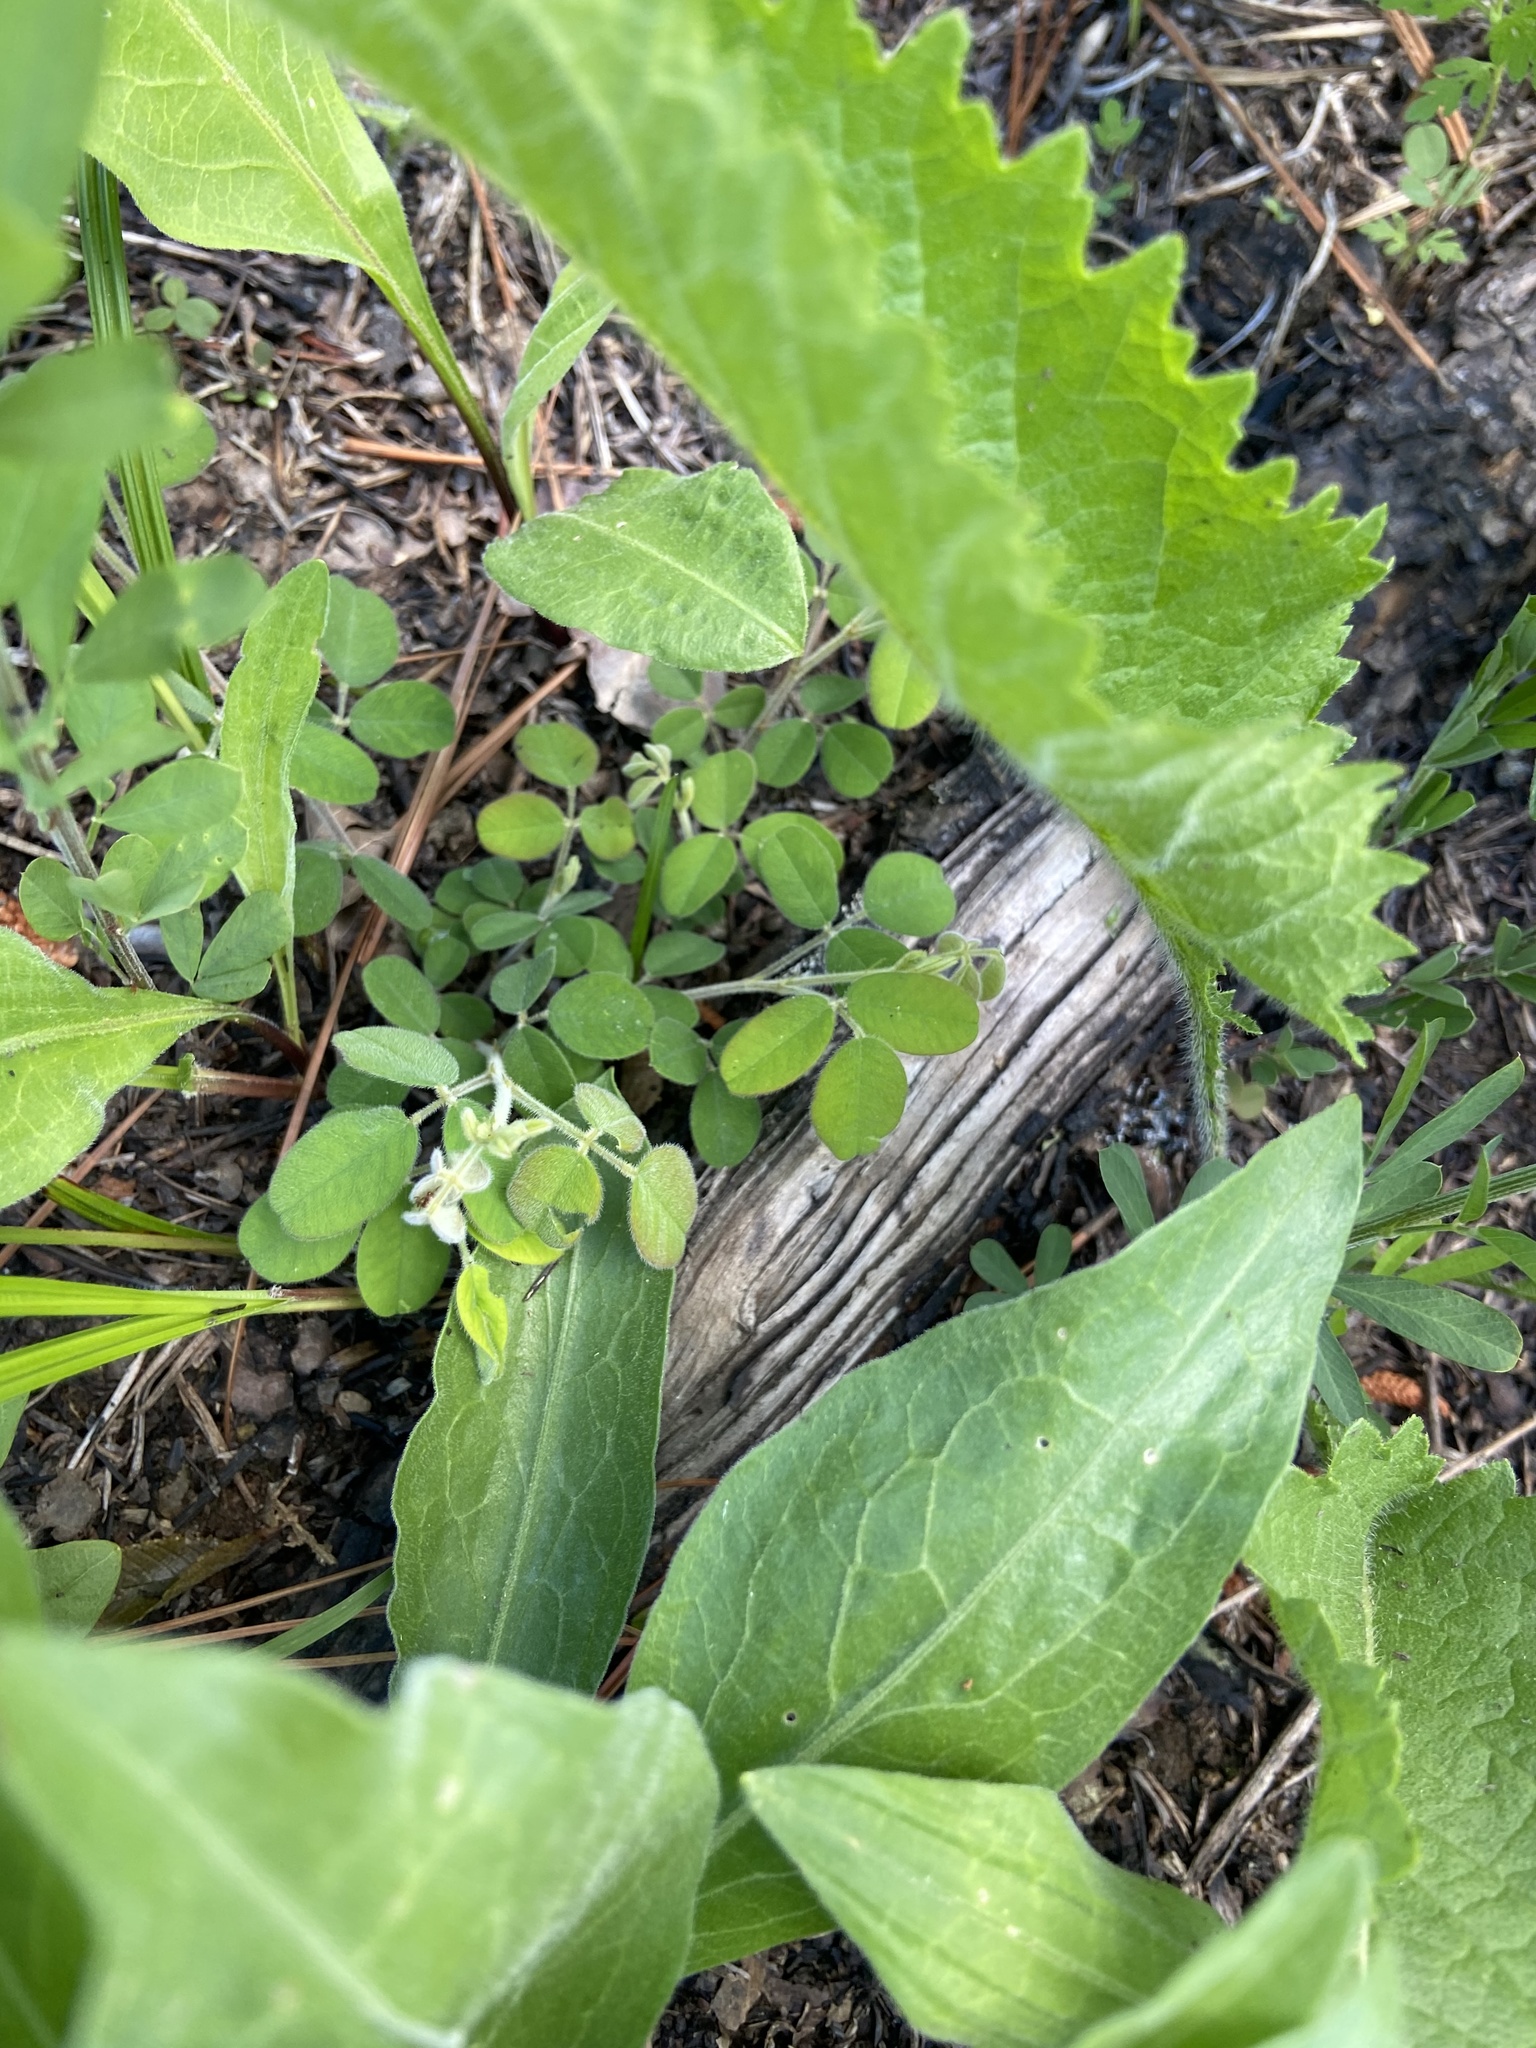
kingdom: Plantae
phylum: Tracheophyta
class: Magnoliopsida
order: Fabales
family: Fabaceae
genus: Lespedeza
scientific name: Lespedeza procumbens
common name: Downy trailing bush-clover
